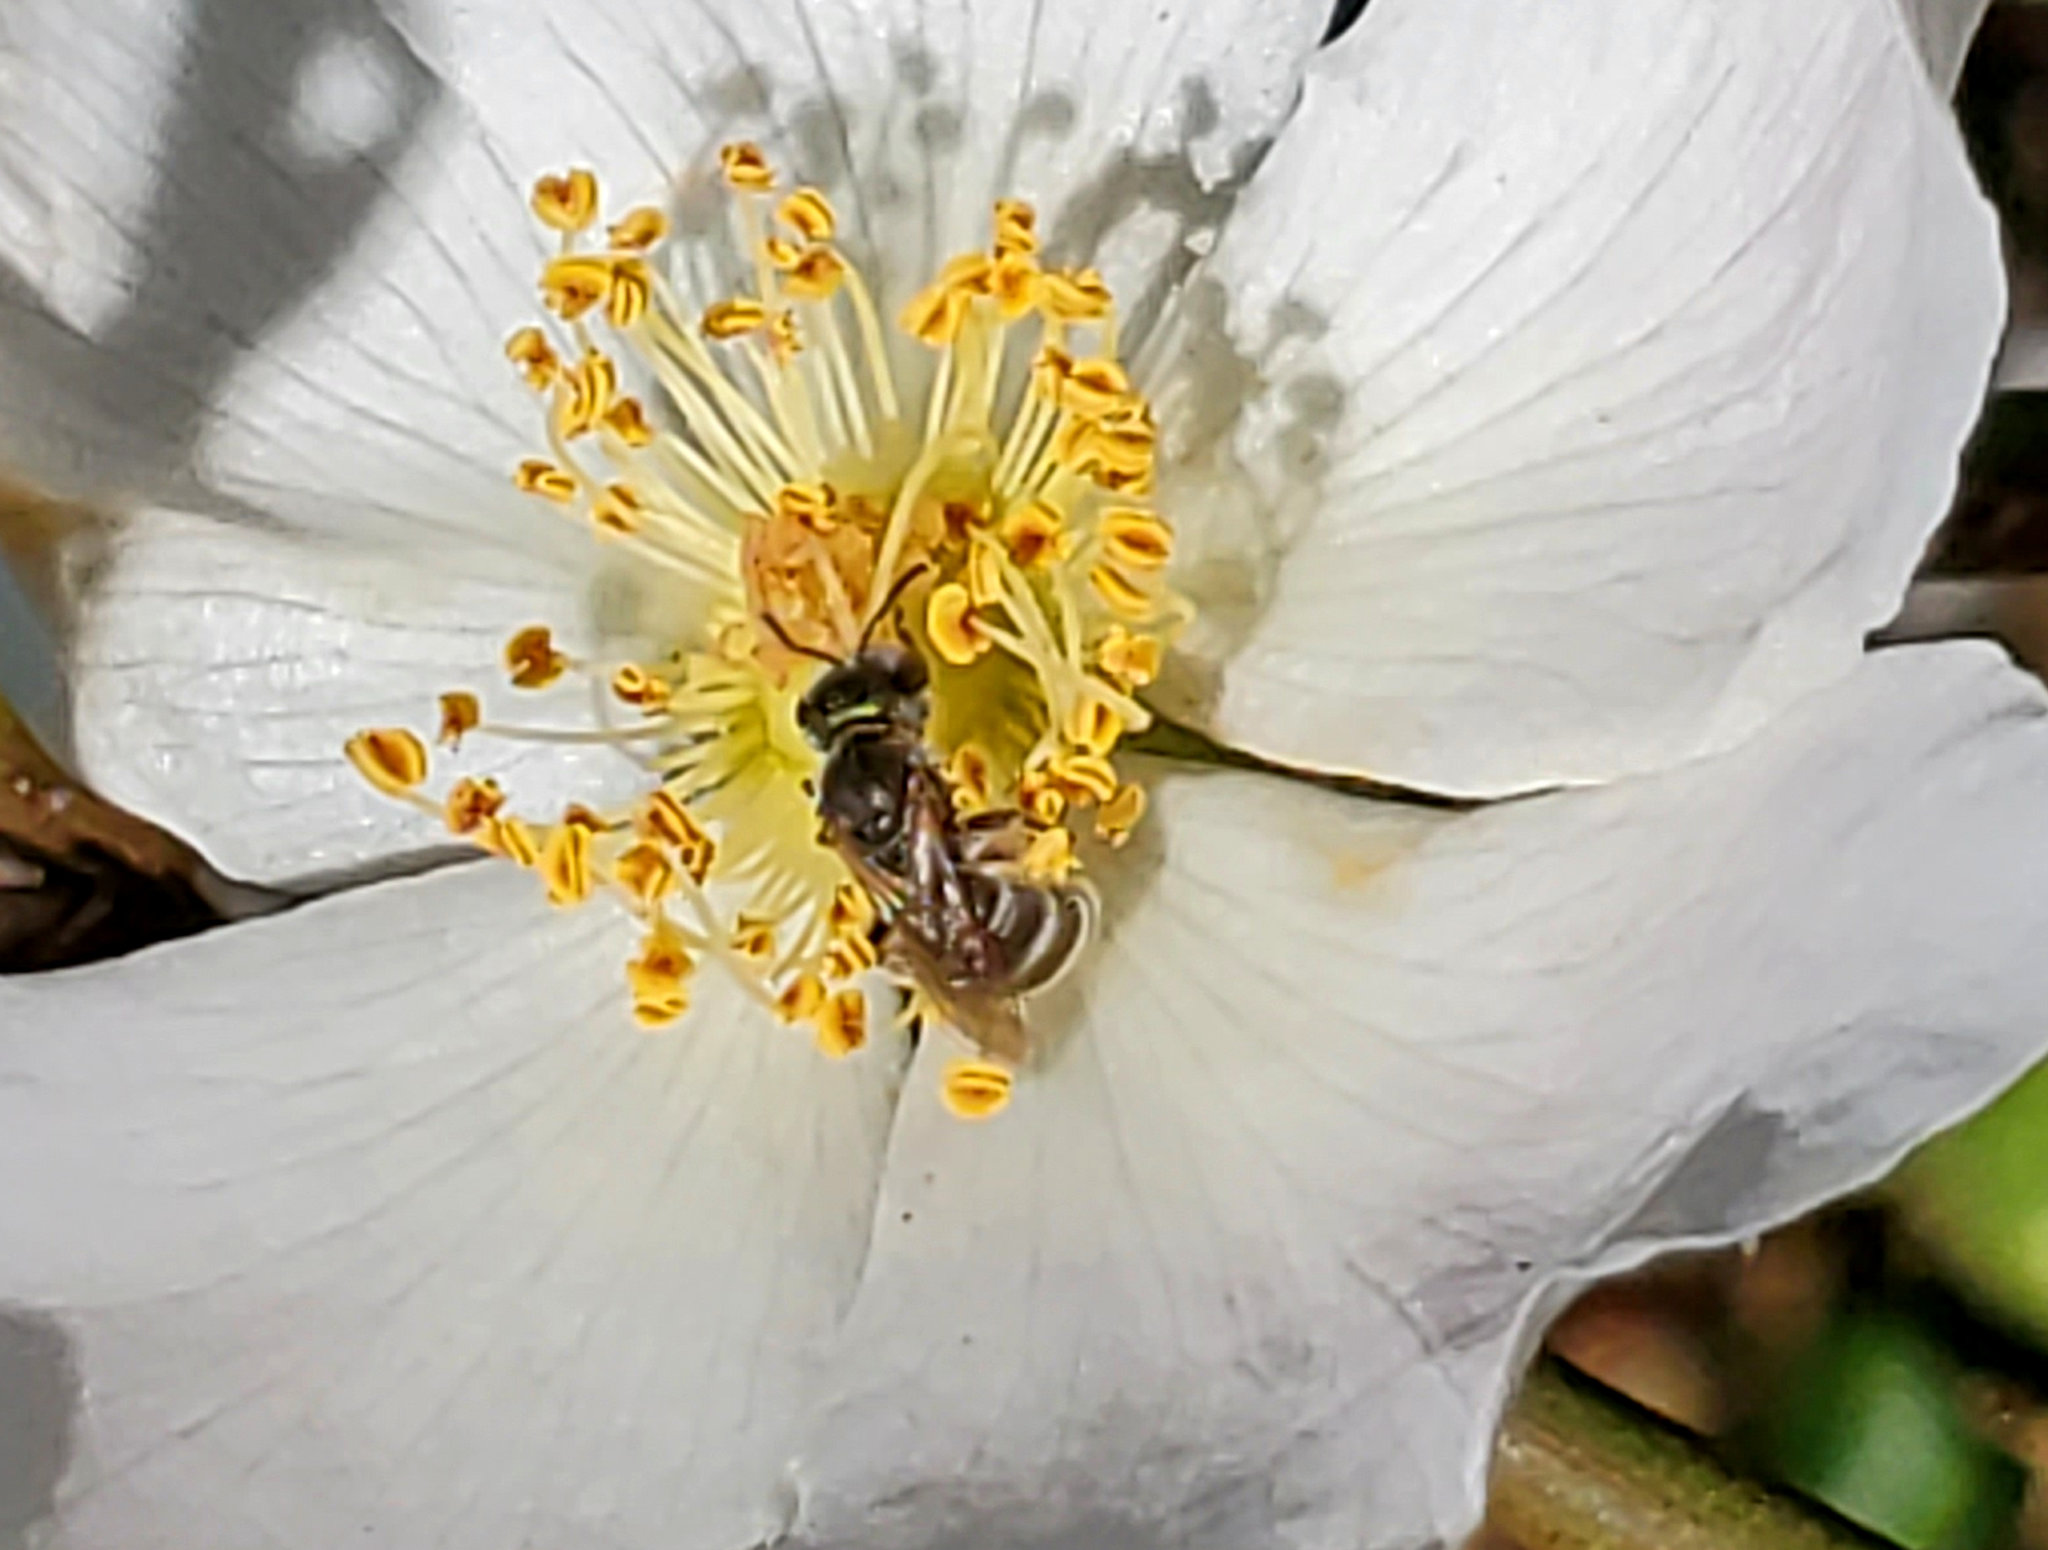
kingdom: Animalia
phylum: Arthropoda
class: Insecta
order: Hymenoptera
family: Halictidae
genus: Halictus
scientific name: Halictus tripartitus
